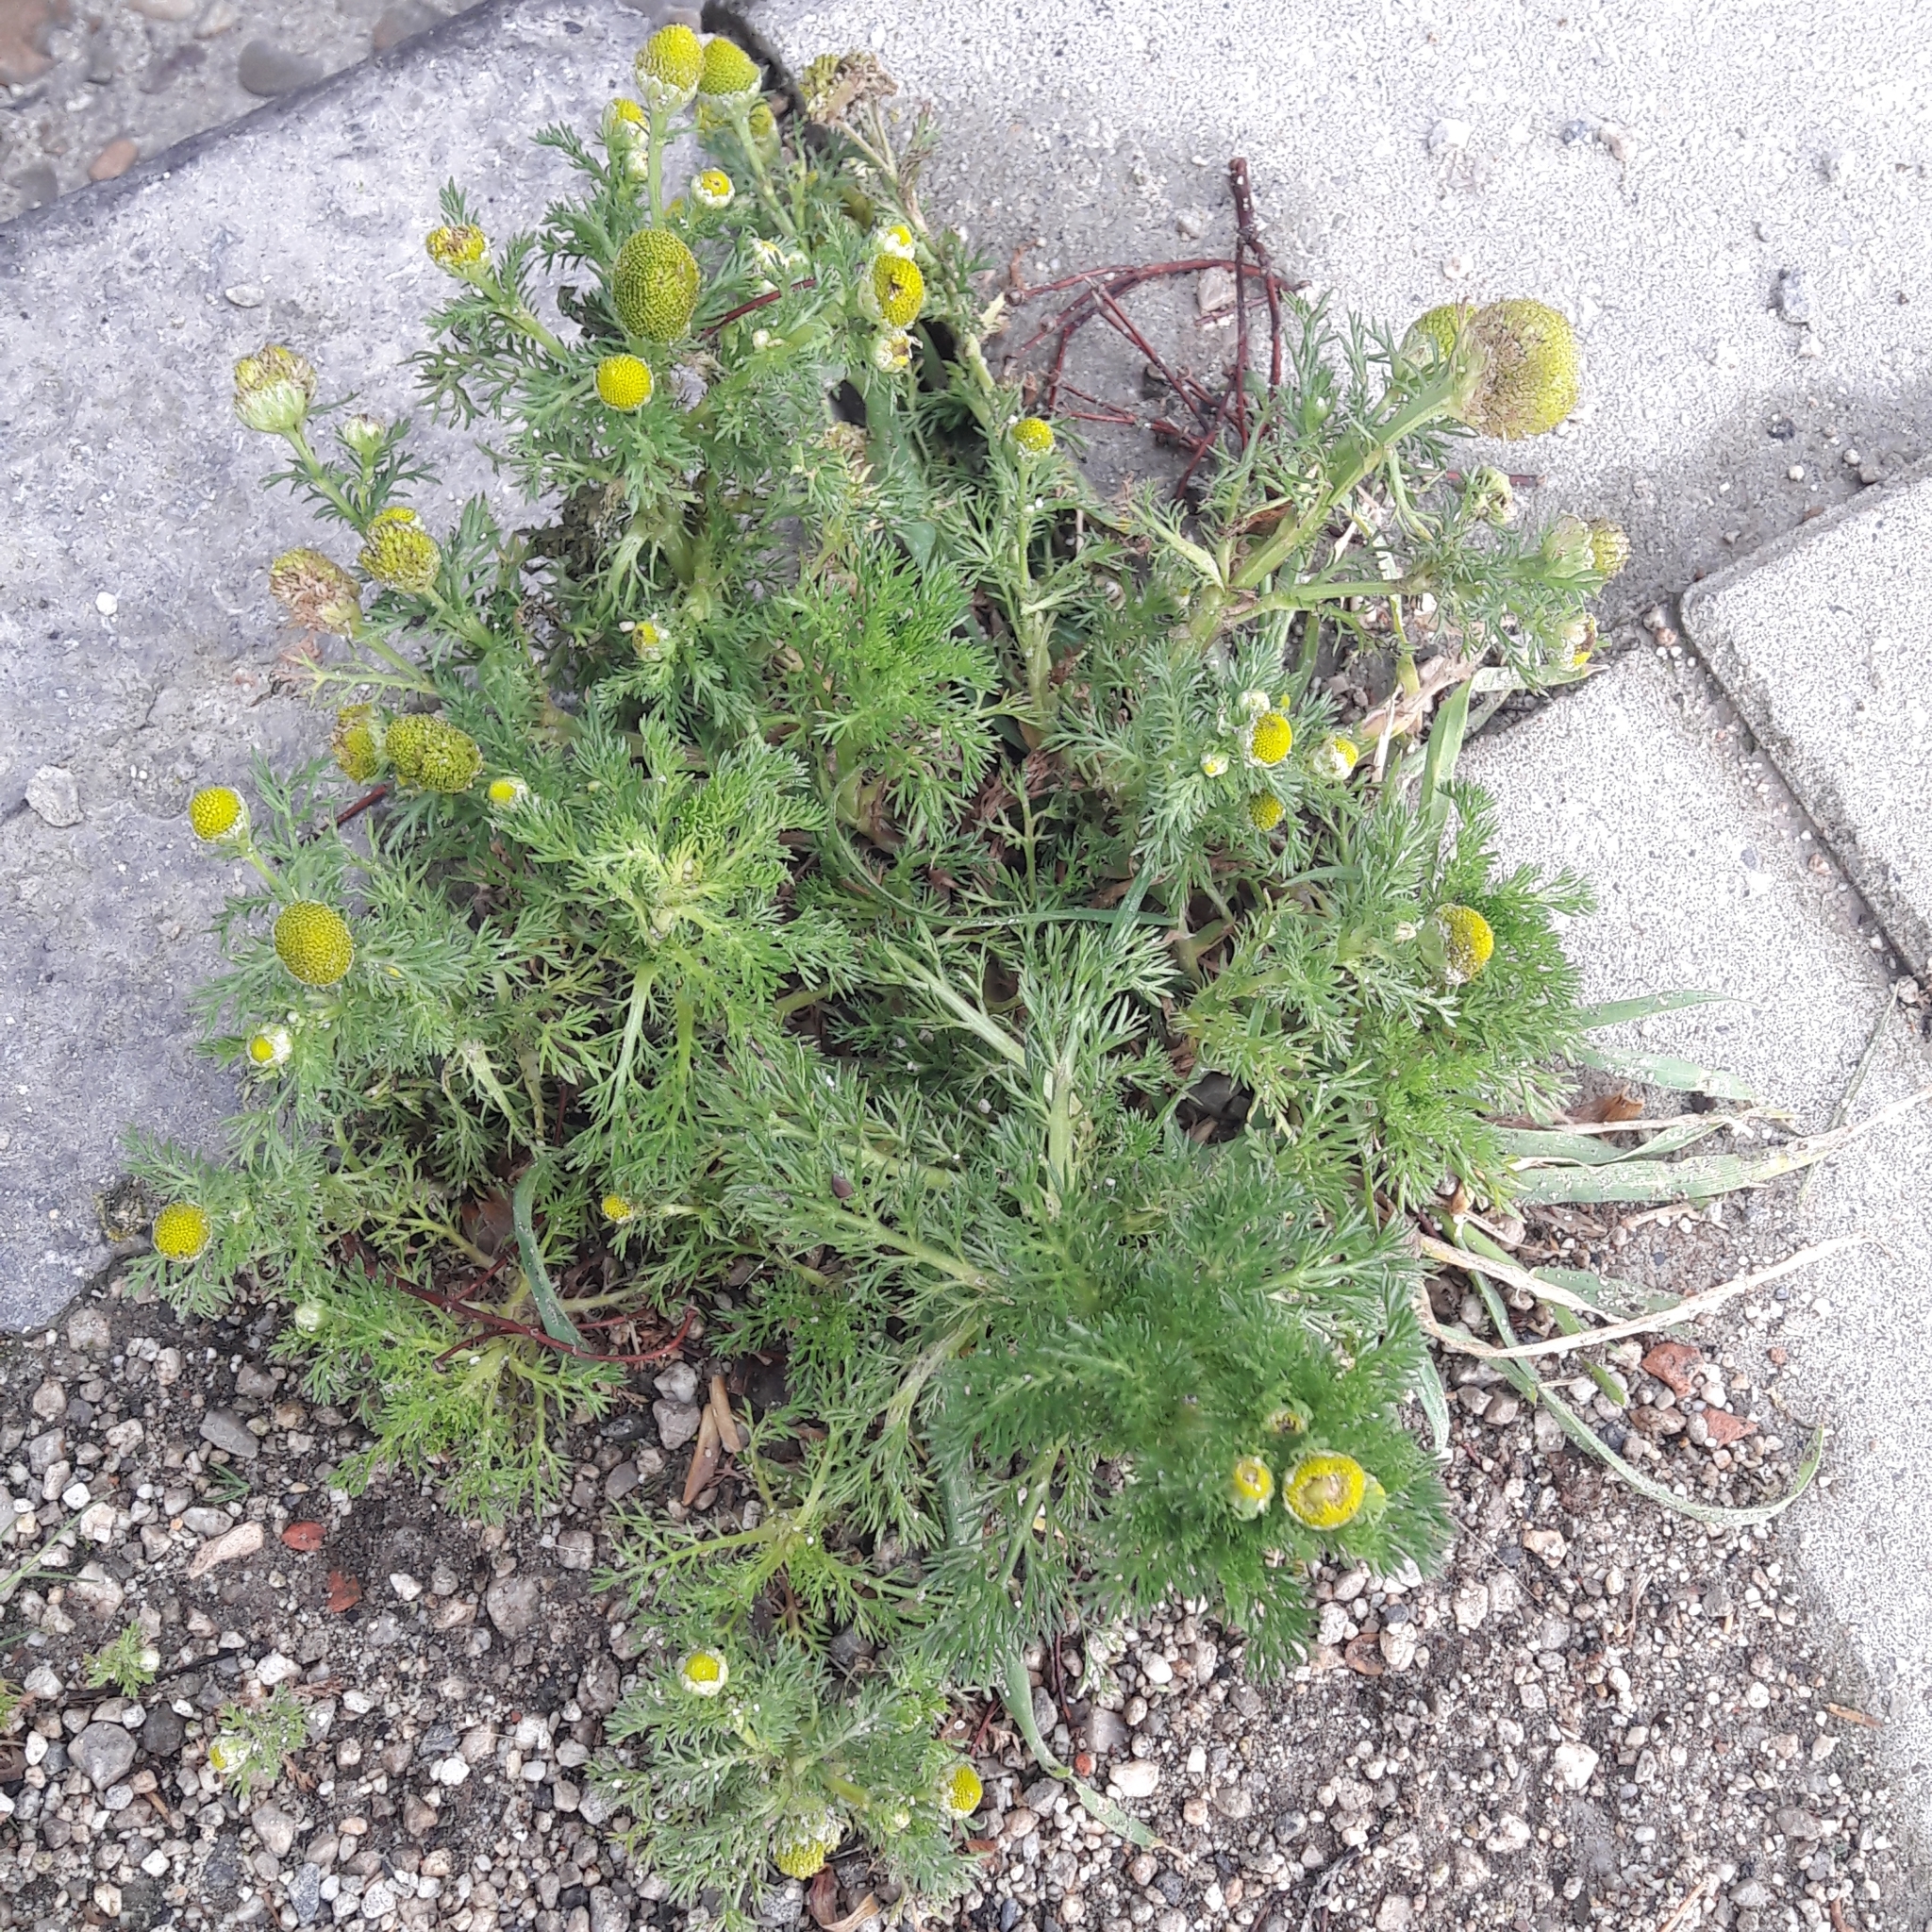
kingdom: Plantae
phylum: Tracheophyta
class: Magnoliopsida
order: Asterales
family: Asteraceae
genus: Matricaria
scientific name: Matricaria discoidea
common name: Disc mayweed
